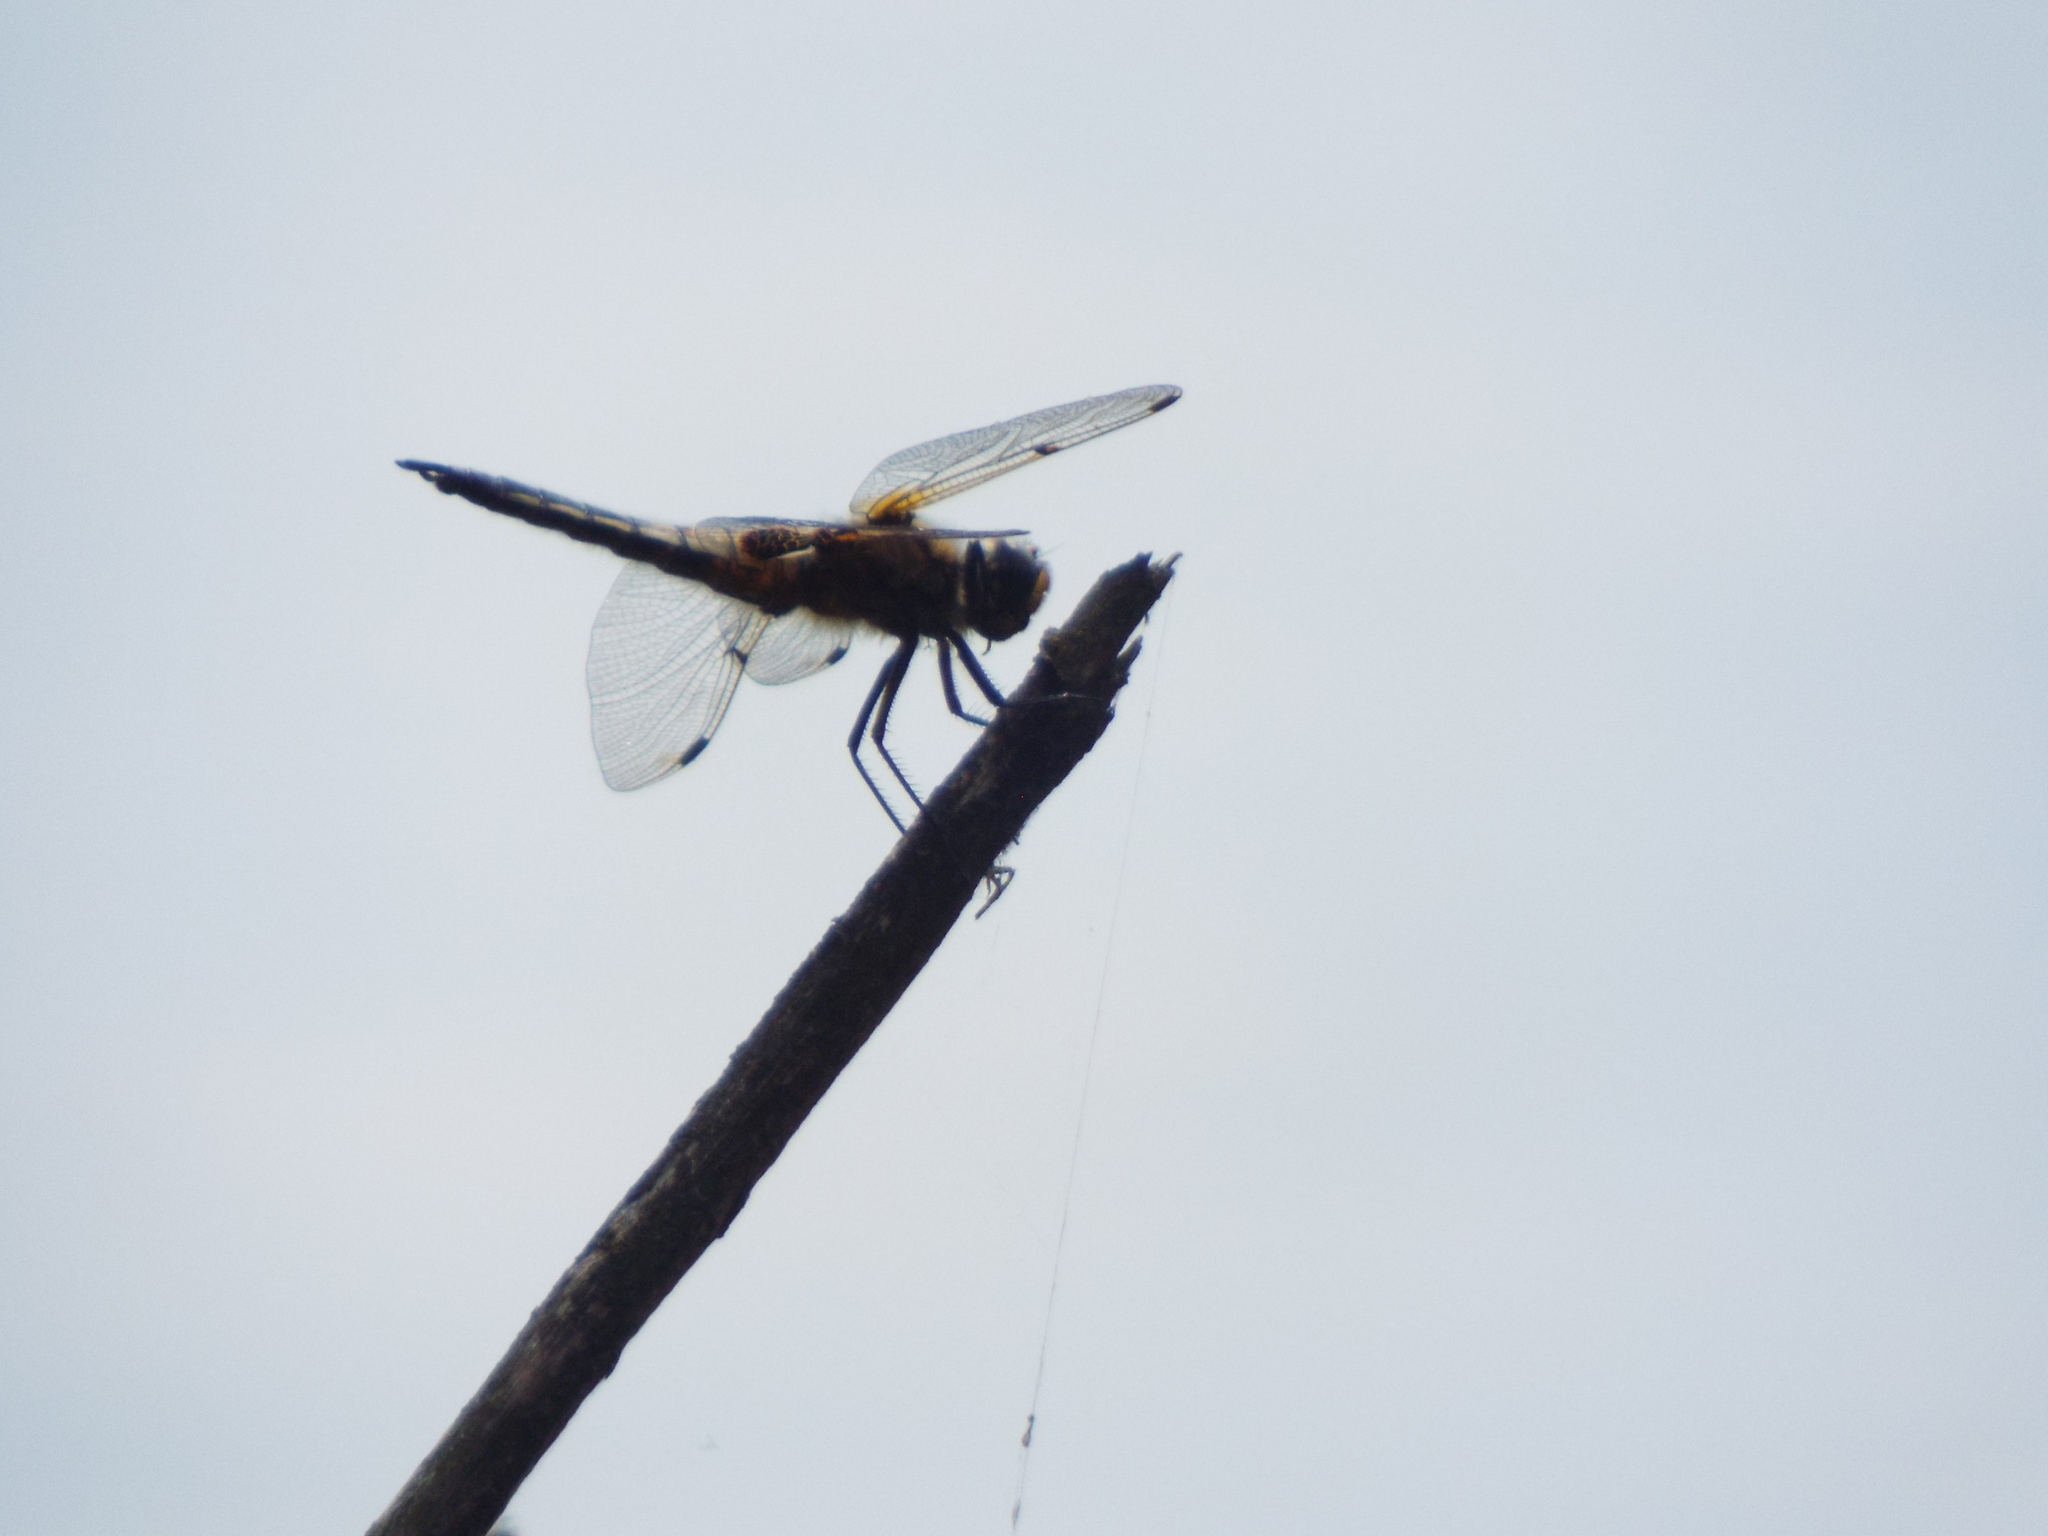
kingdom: Animalia
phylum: Arthropoda
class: Insecta
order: Odonata
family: Libellulidae
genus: Libellula
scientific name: Libellula quadrimaculata
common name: Four-spotted chaser
